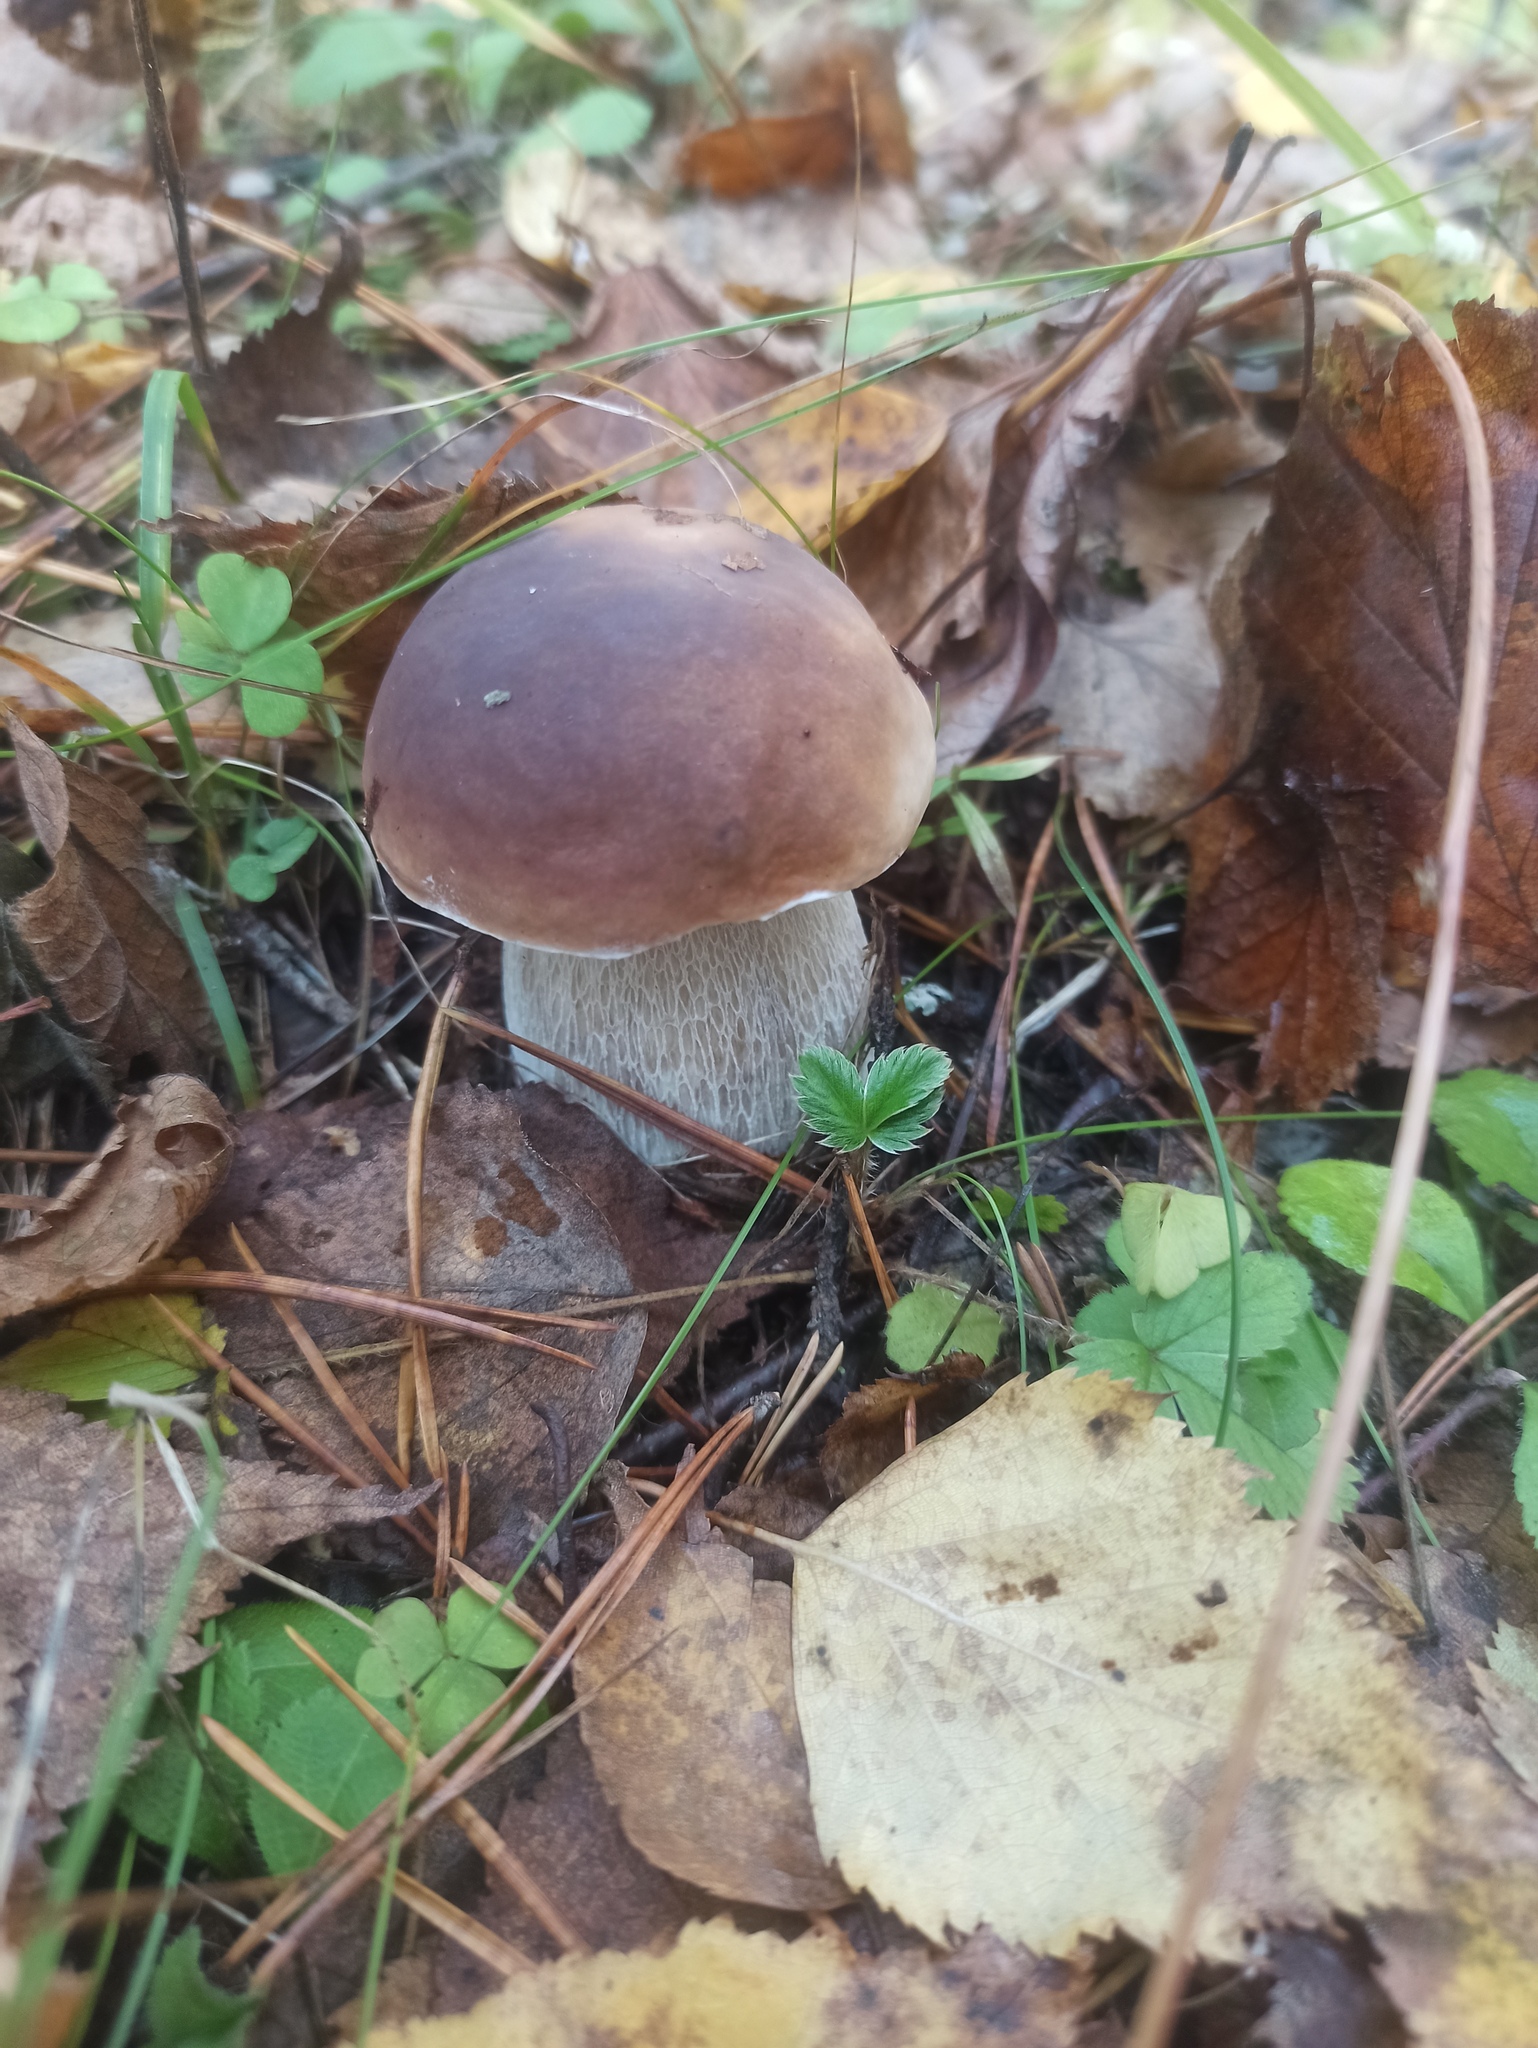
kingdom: Fungi
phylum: Basidiomycota
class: Agaricomycetes
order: Boletales
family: Boletaceae
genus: Boletus
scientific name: Boletus edulis
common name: Cep
